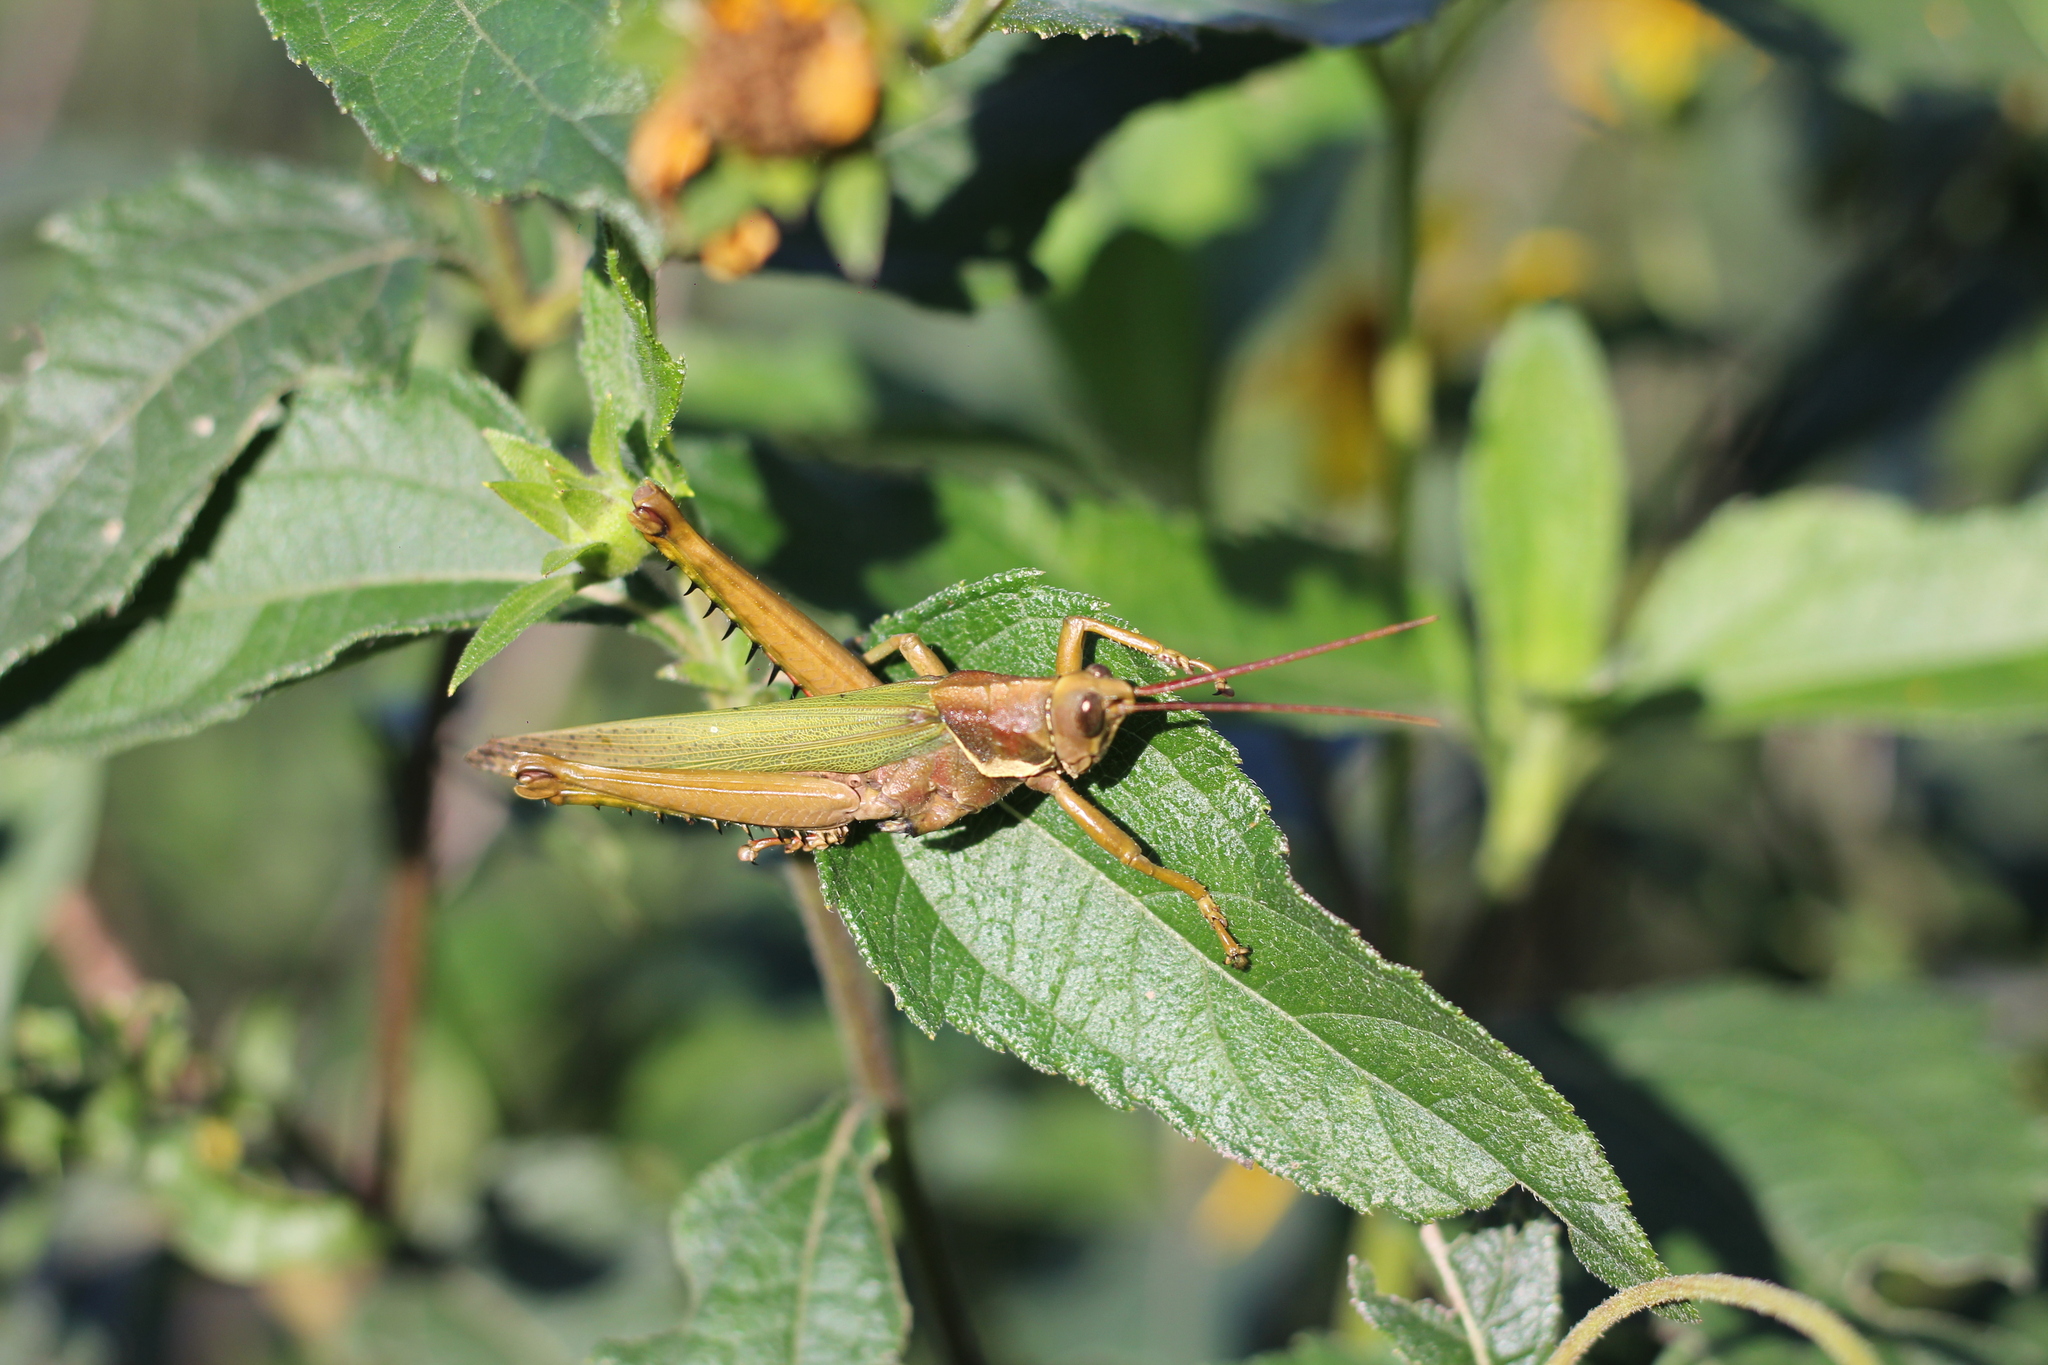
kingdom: Animalia
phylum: Arthropoda
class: Insecta
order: Orthoptera
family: Romaleidae
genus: Coryacris
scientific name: Coryacris angustipennis
